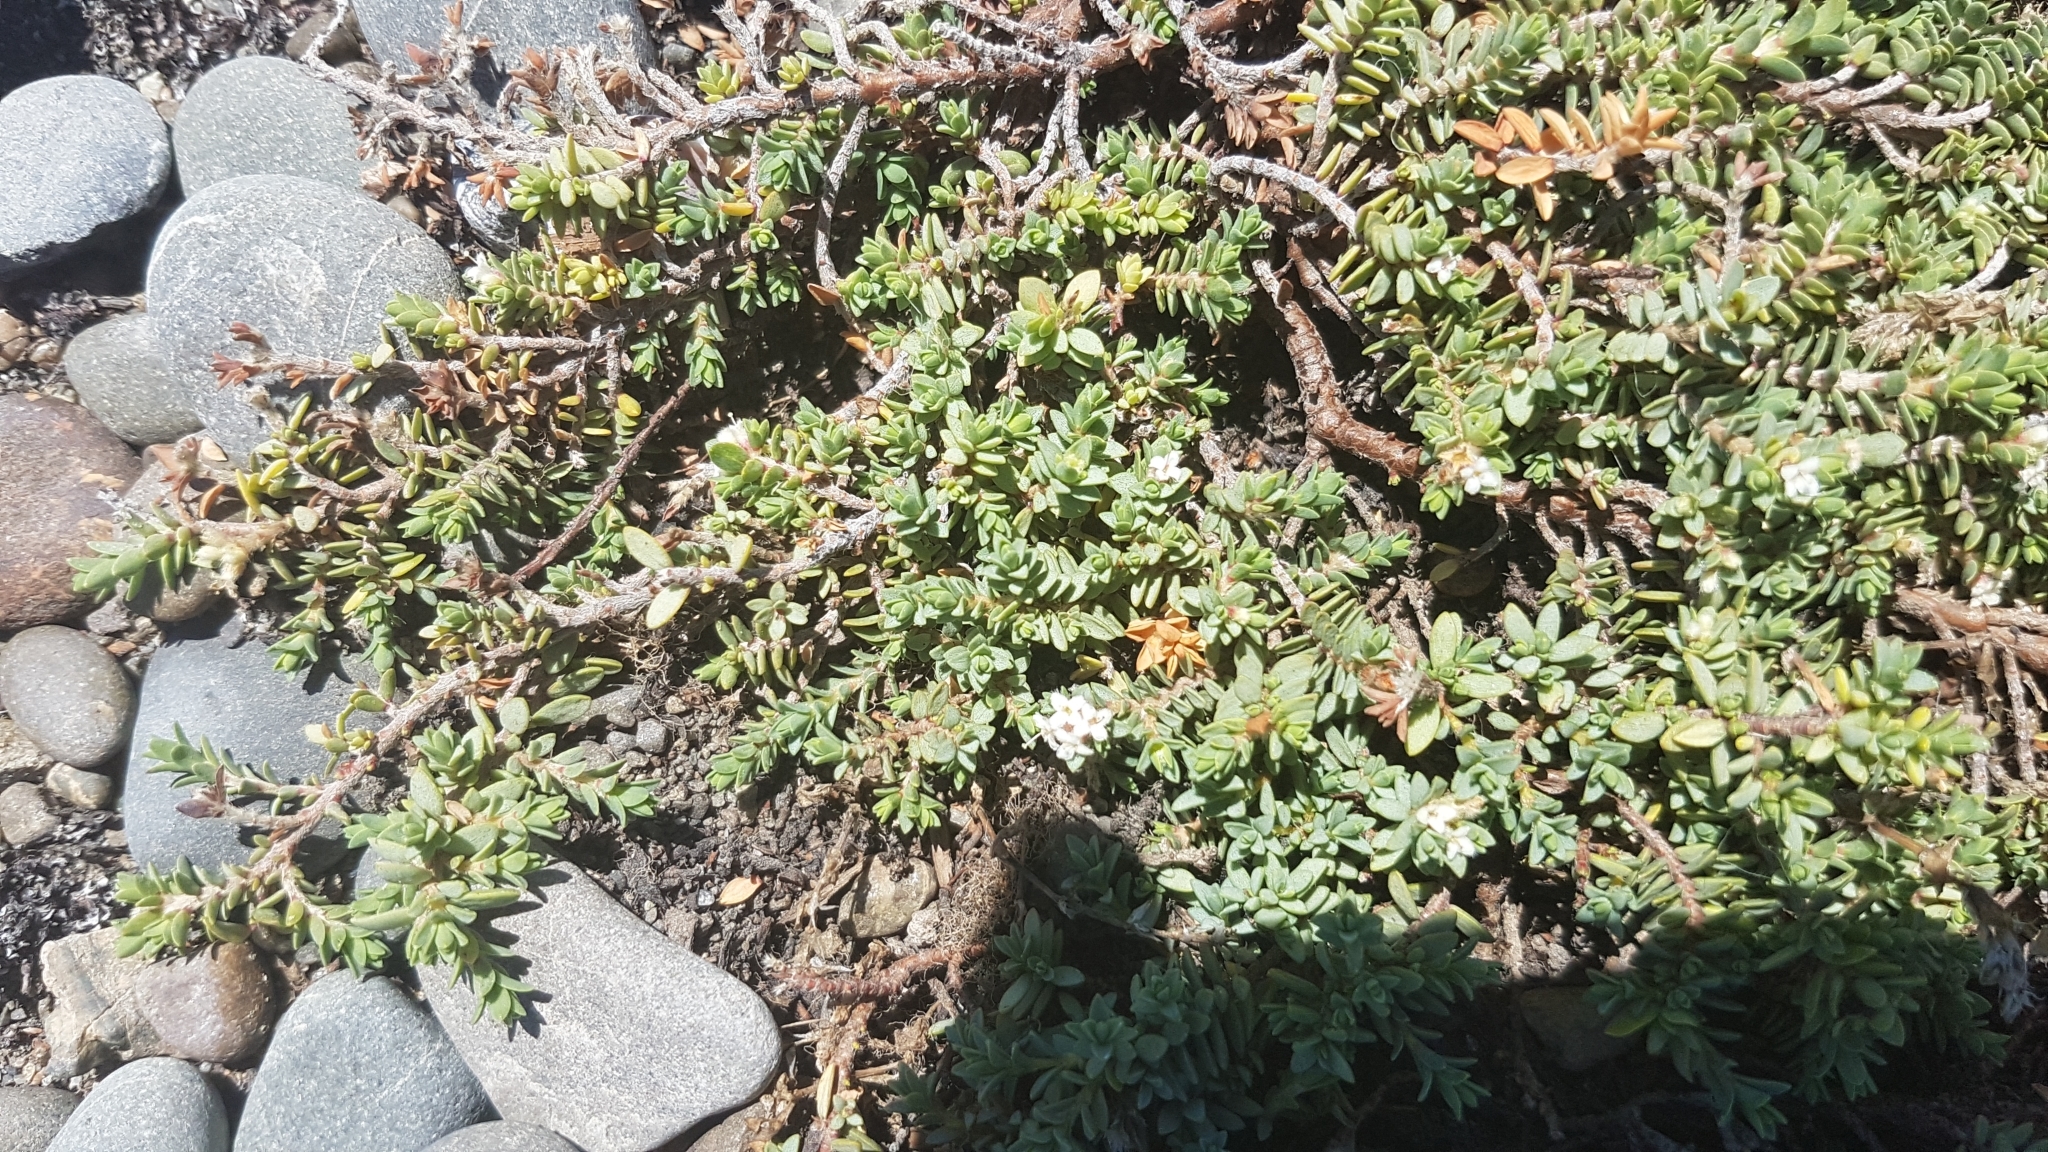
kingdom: Plantae
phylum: Tracheophyta
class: Magnoliopsida
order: Malvales
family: Thymelaeaceae
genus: Pimelea
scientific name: Pimelea prostrata
